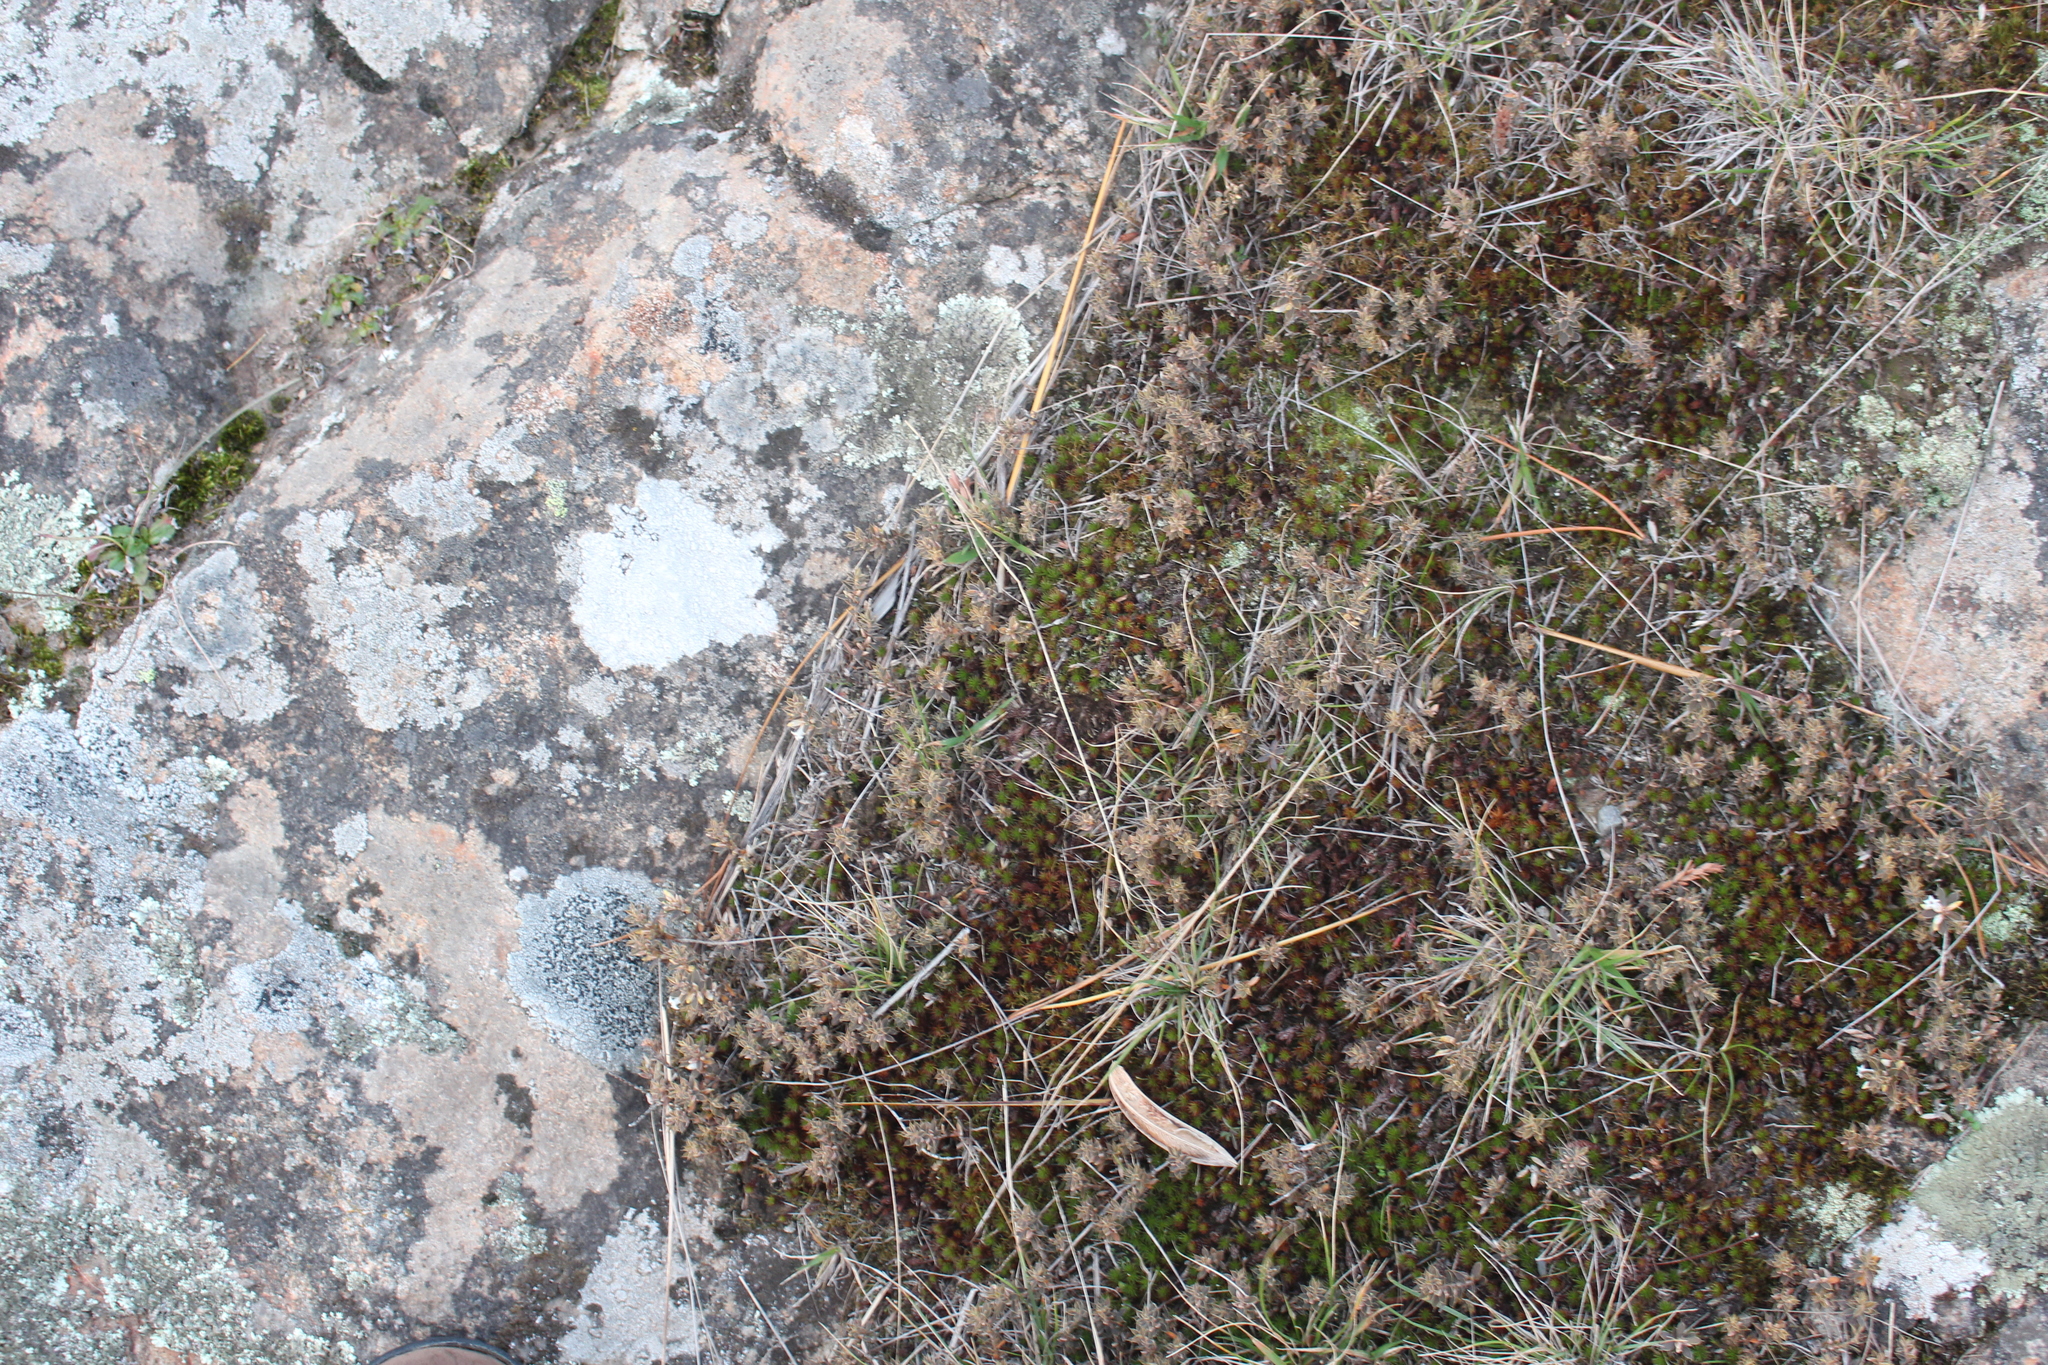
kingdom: Plantae
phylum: Tracheophyta
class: Magnoliopsida
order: Ericales
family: Ericaceae
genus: Styphelia
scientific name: Styphelia nesophila
